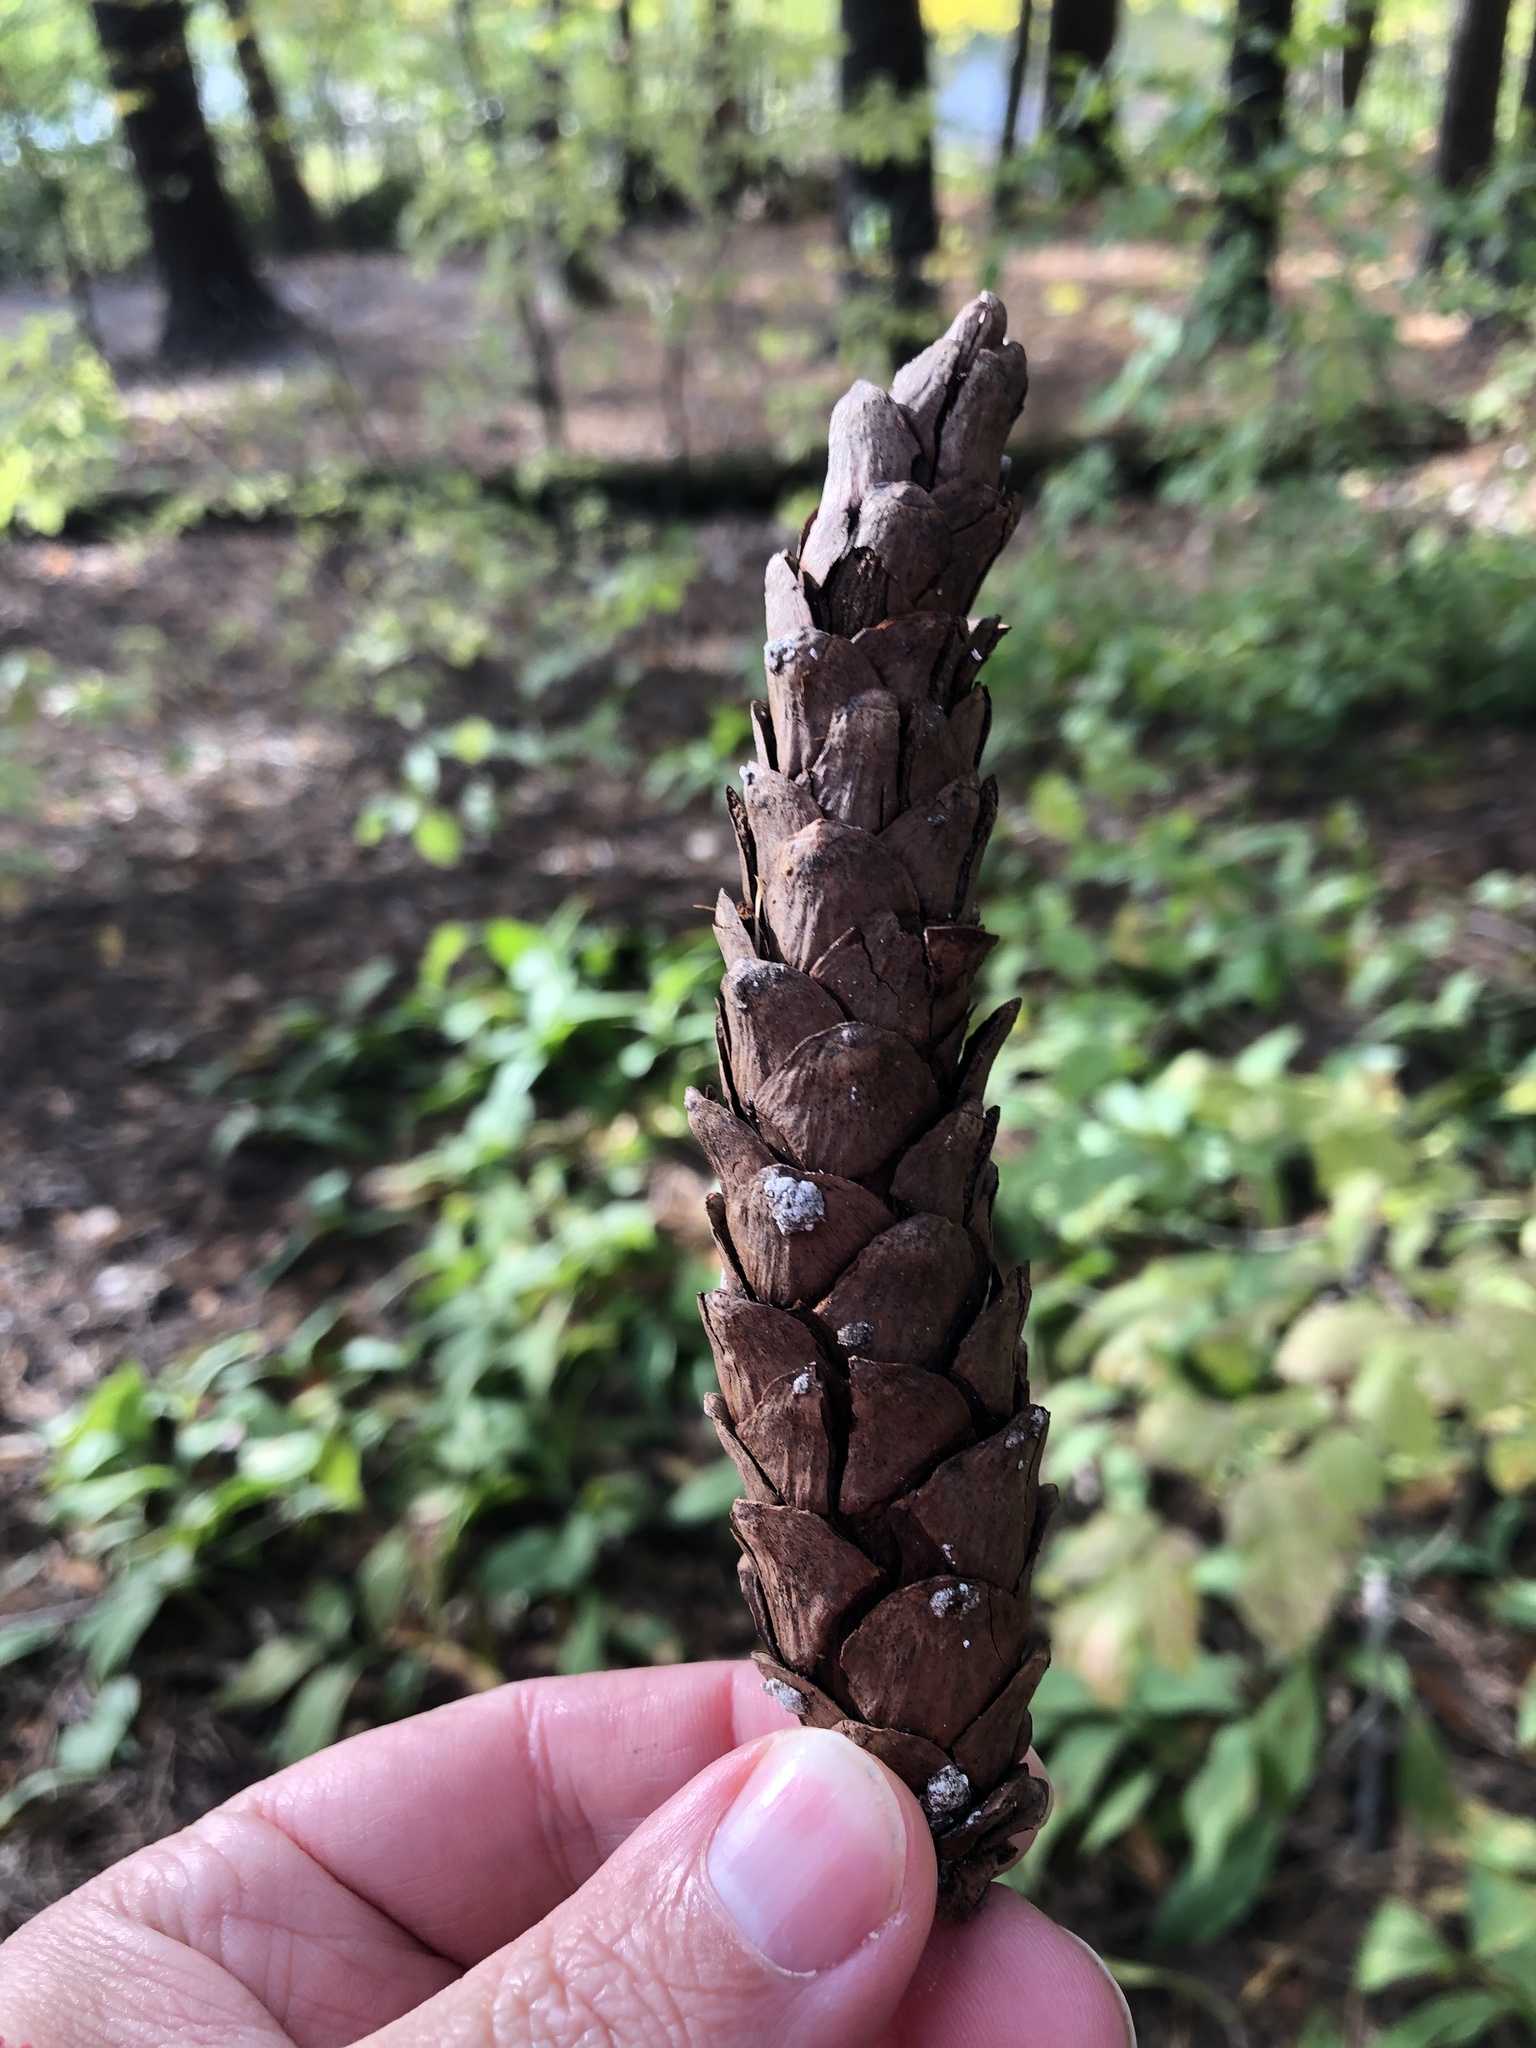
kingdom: Plantae
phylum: Tracheophyta
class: Pinopsida
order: Pinales
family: Pinaceae
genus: Pinus
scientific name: Pinus strobus
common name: Weymouth pine
